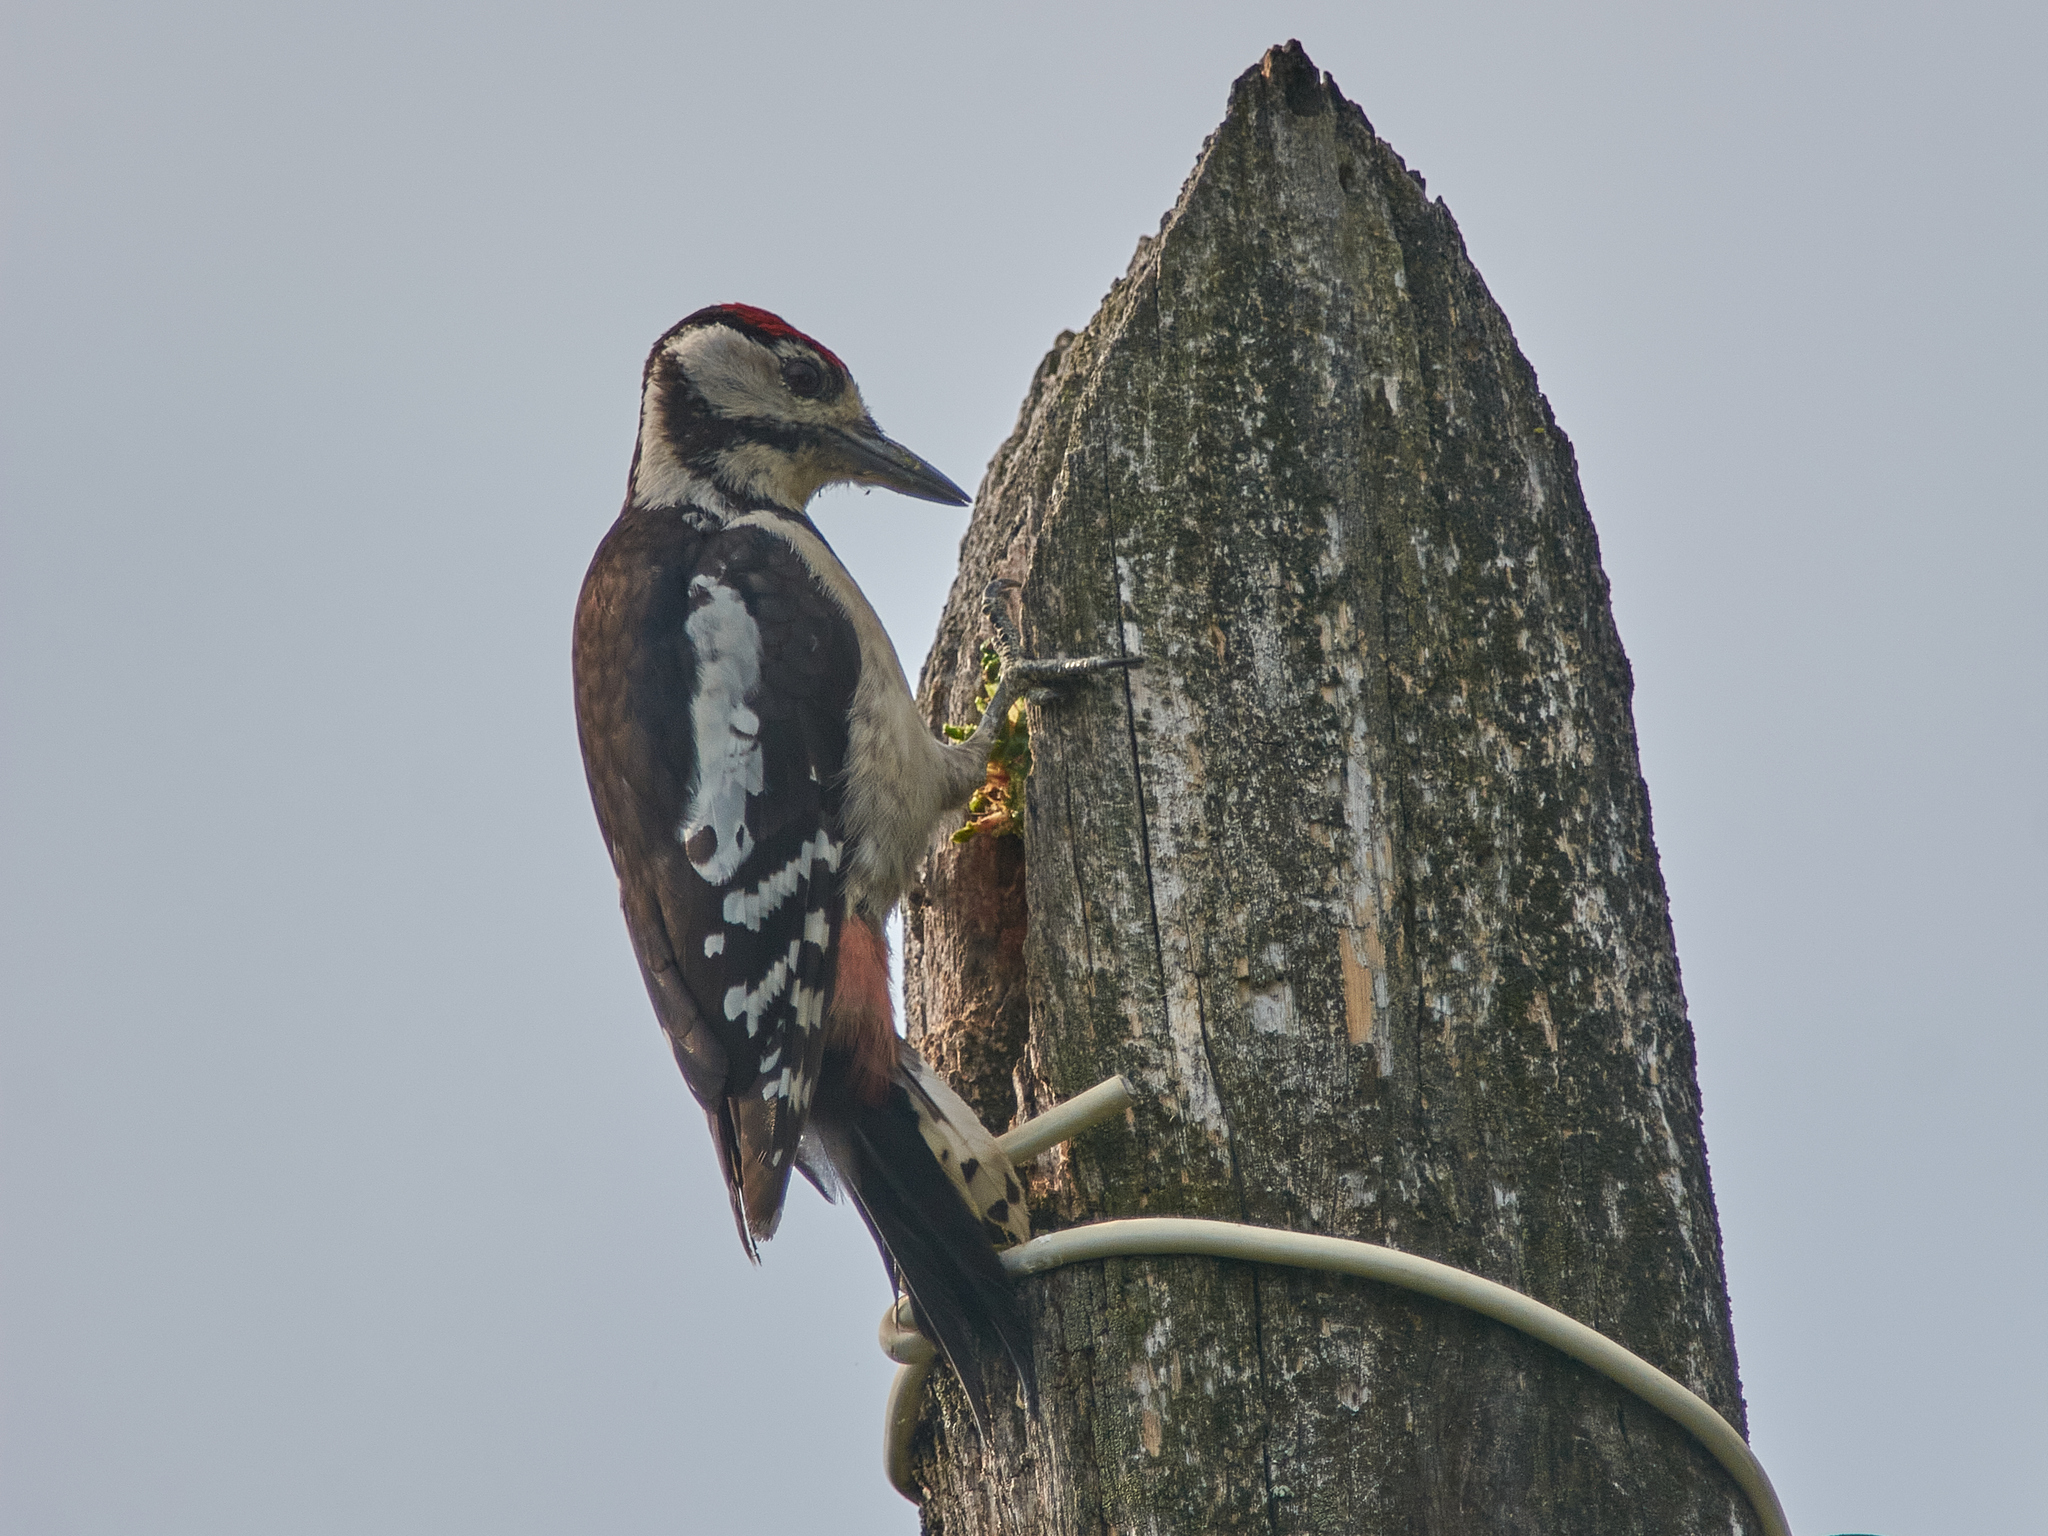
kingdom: Animalia
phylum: Chordata
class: Aves
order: Piciformes
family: Picidae
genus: Dendrocopos
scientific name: Dendrocopos major
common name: Great spotted woodpecker
